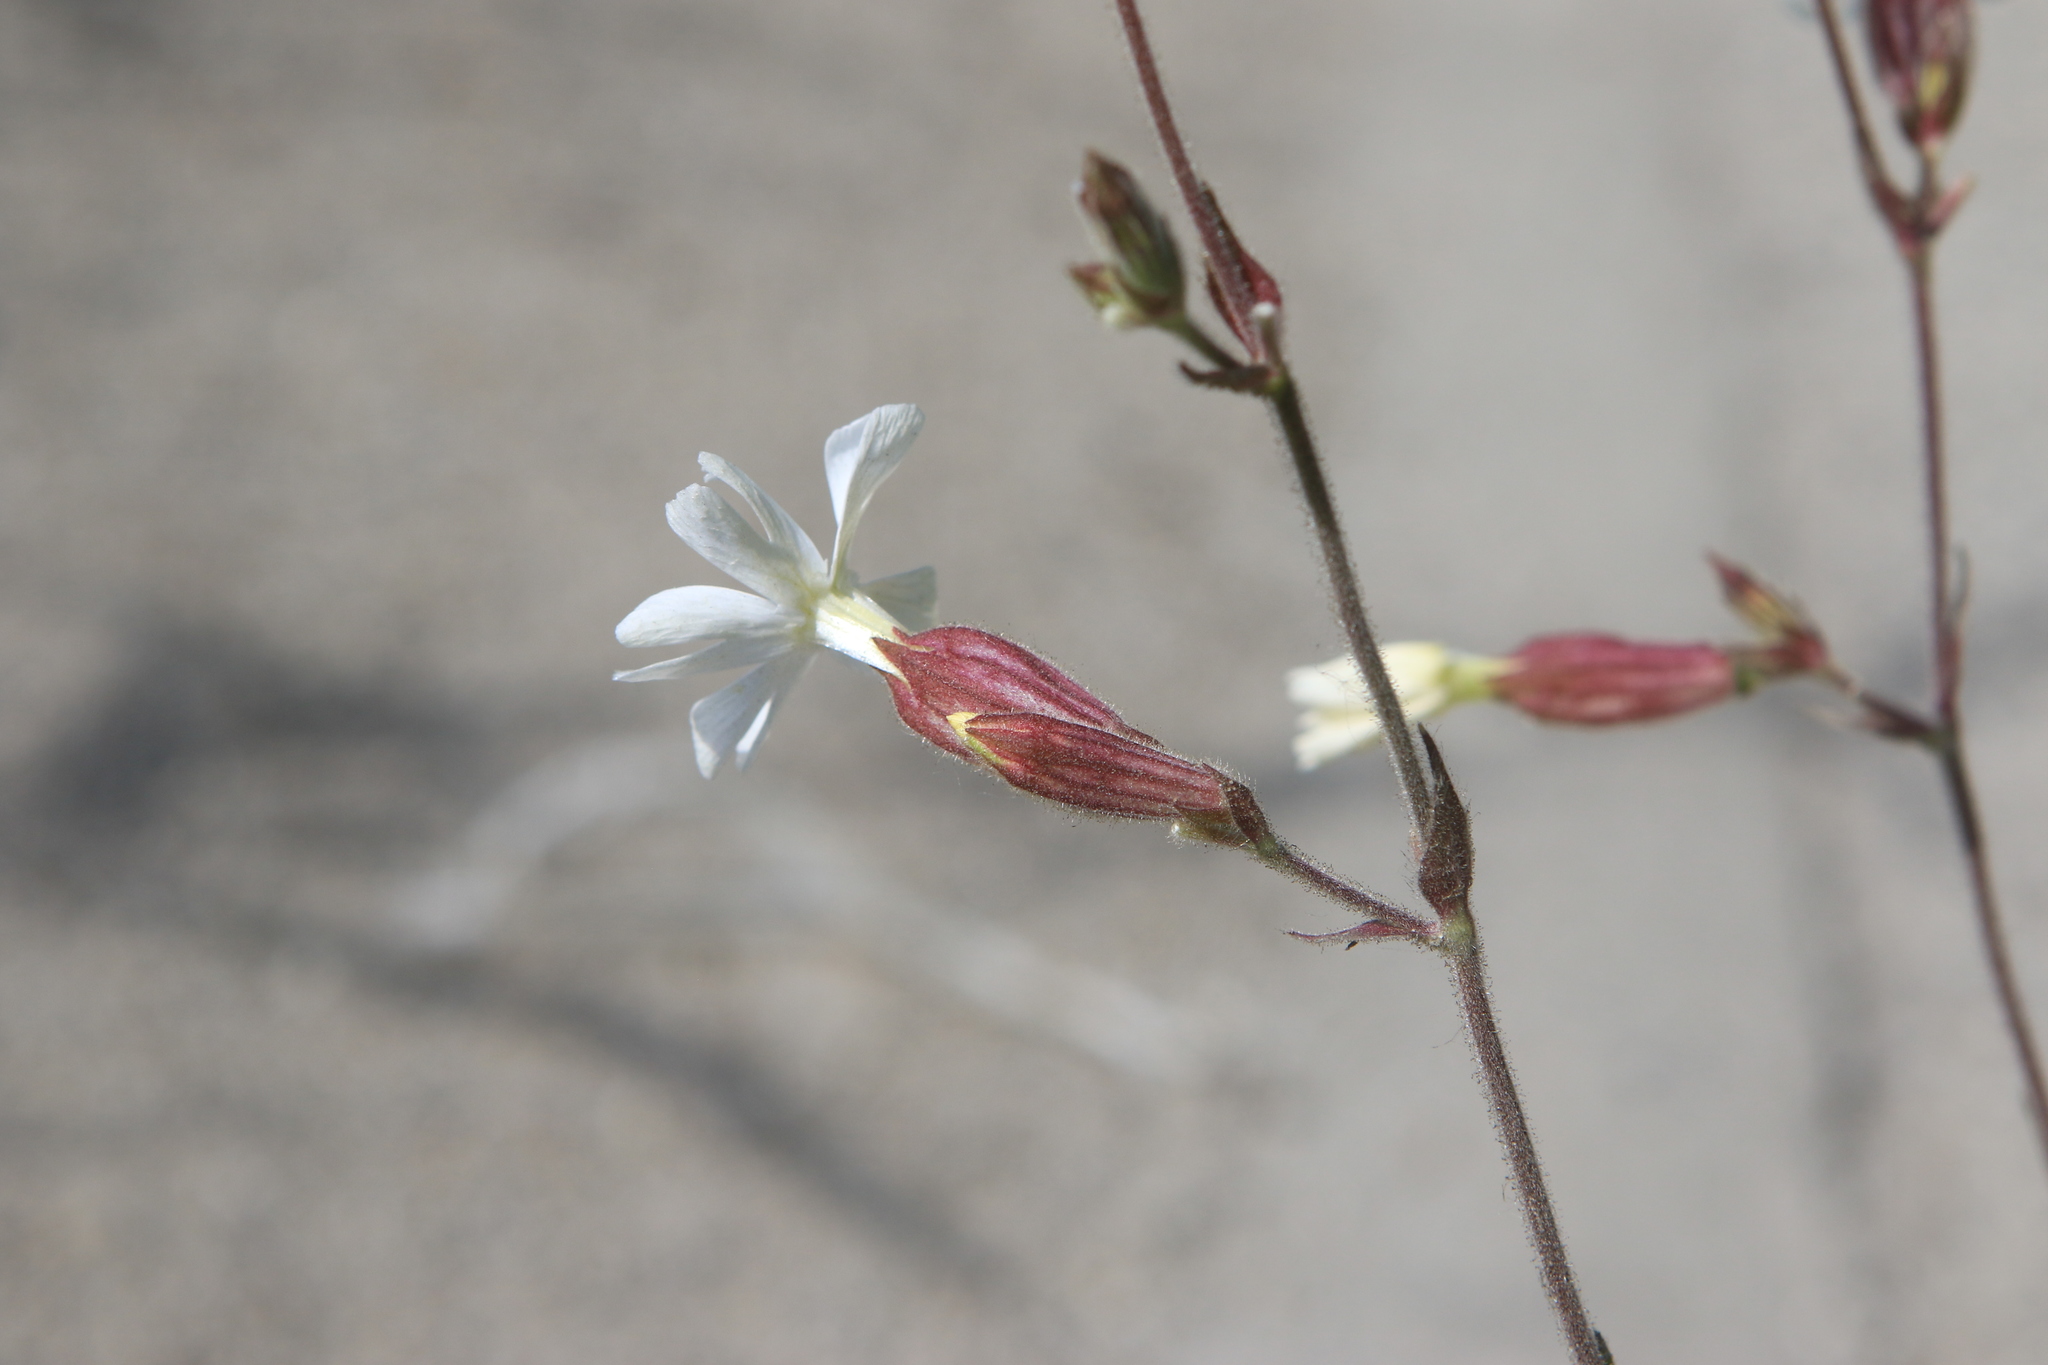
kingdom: Plantae
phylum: Tracheophyta
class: Magnoliopsida
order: Caryophyllales
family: Caryophyllaceae
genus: Silene
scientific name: Silene latifolia
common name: White campion
